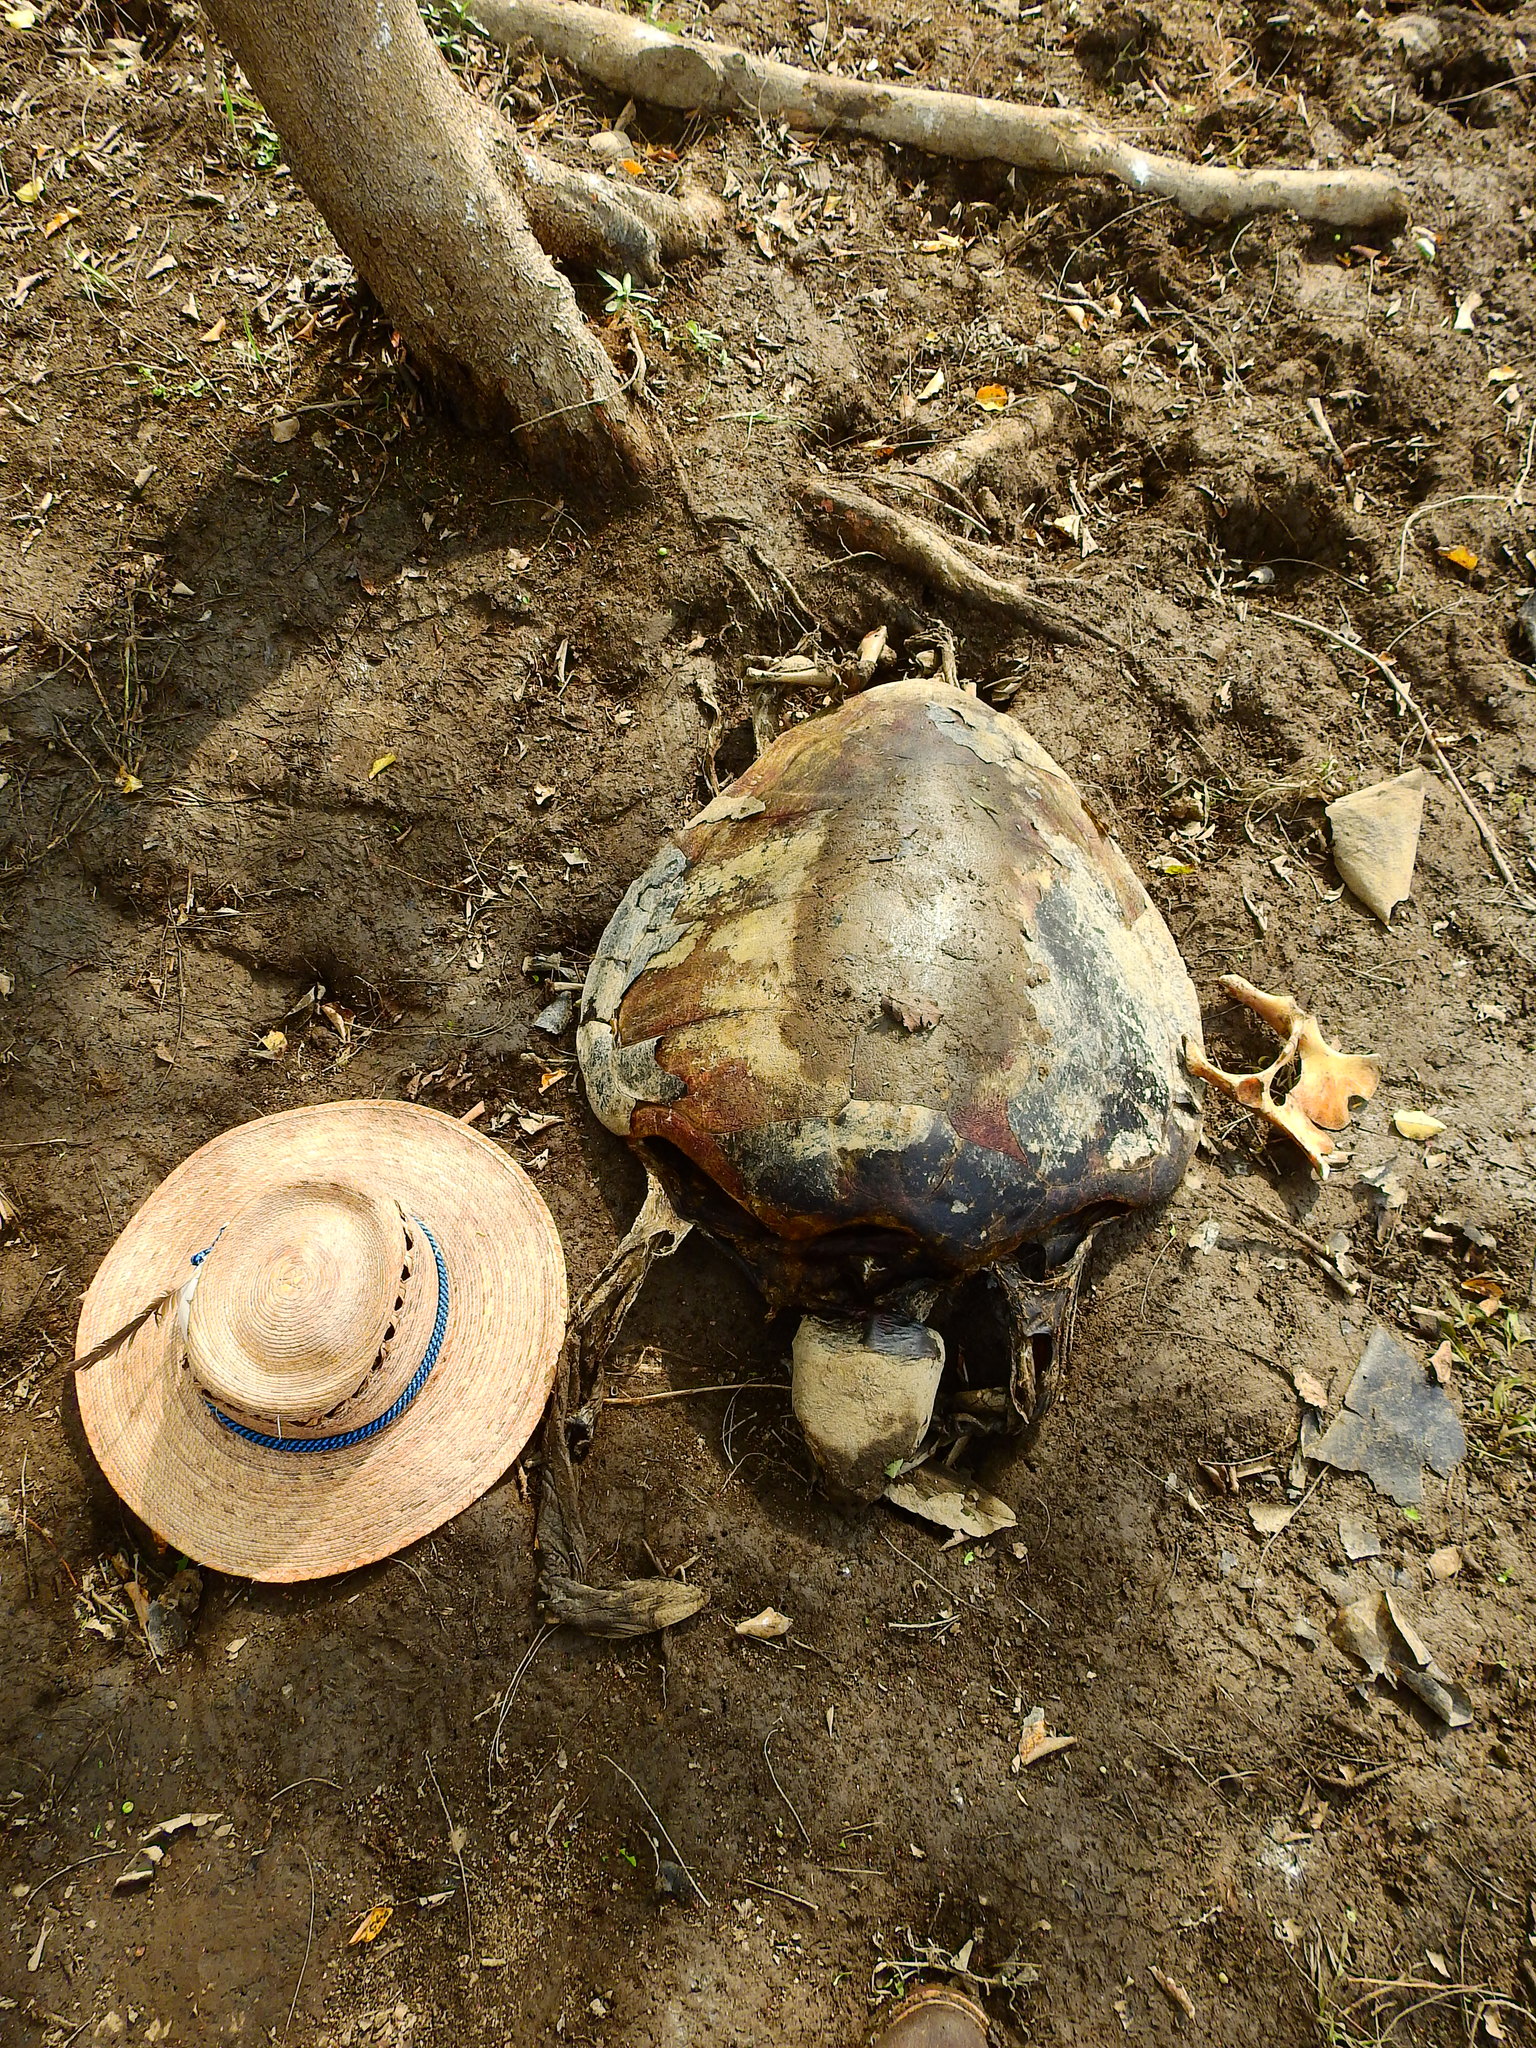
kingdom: Animalia
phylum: Chordata
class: Testudines
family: Cheloniidae
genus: Caretta
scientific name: Caretta caretta
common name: Loggerhead sea turtle
